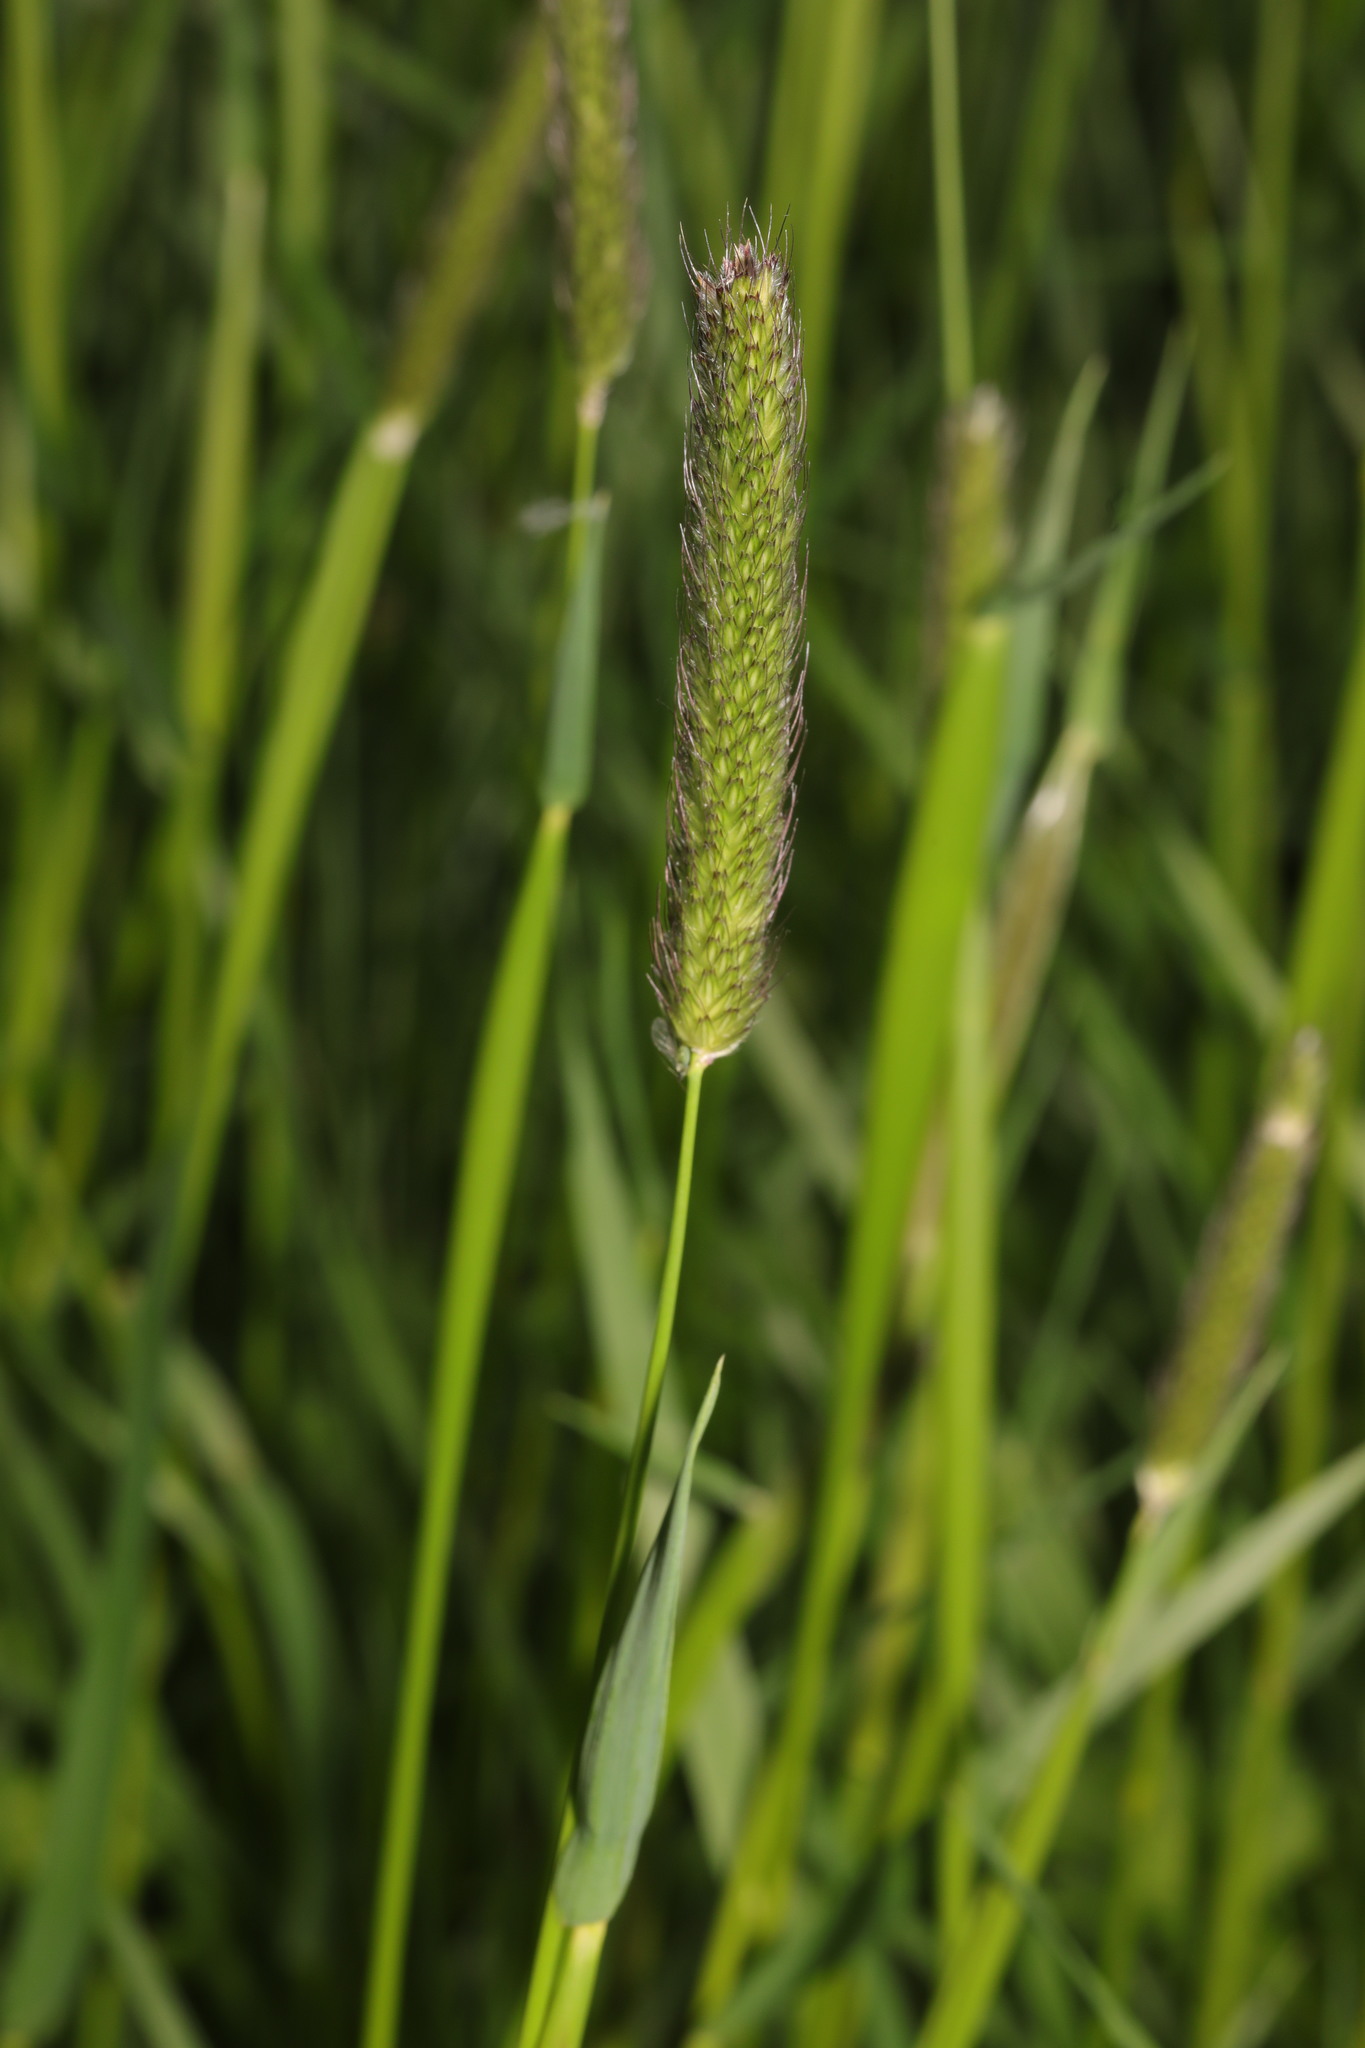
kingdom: Plantae
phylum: Tracheophyta
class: Liliopsida
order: Poales
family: Poaceae
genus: Alopecurus
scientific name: Alopecurus pratensis
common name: Meadow foxtail
